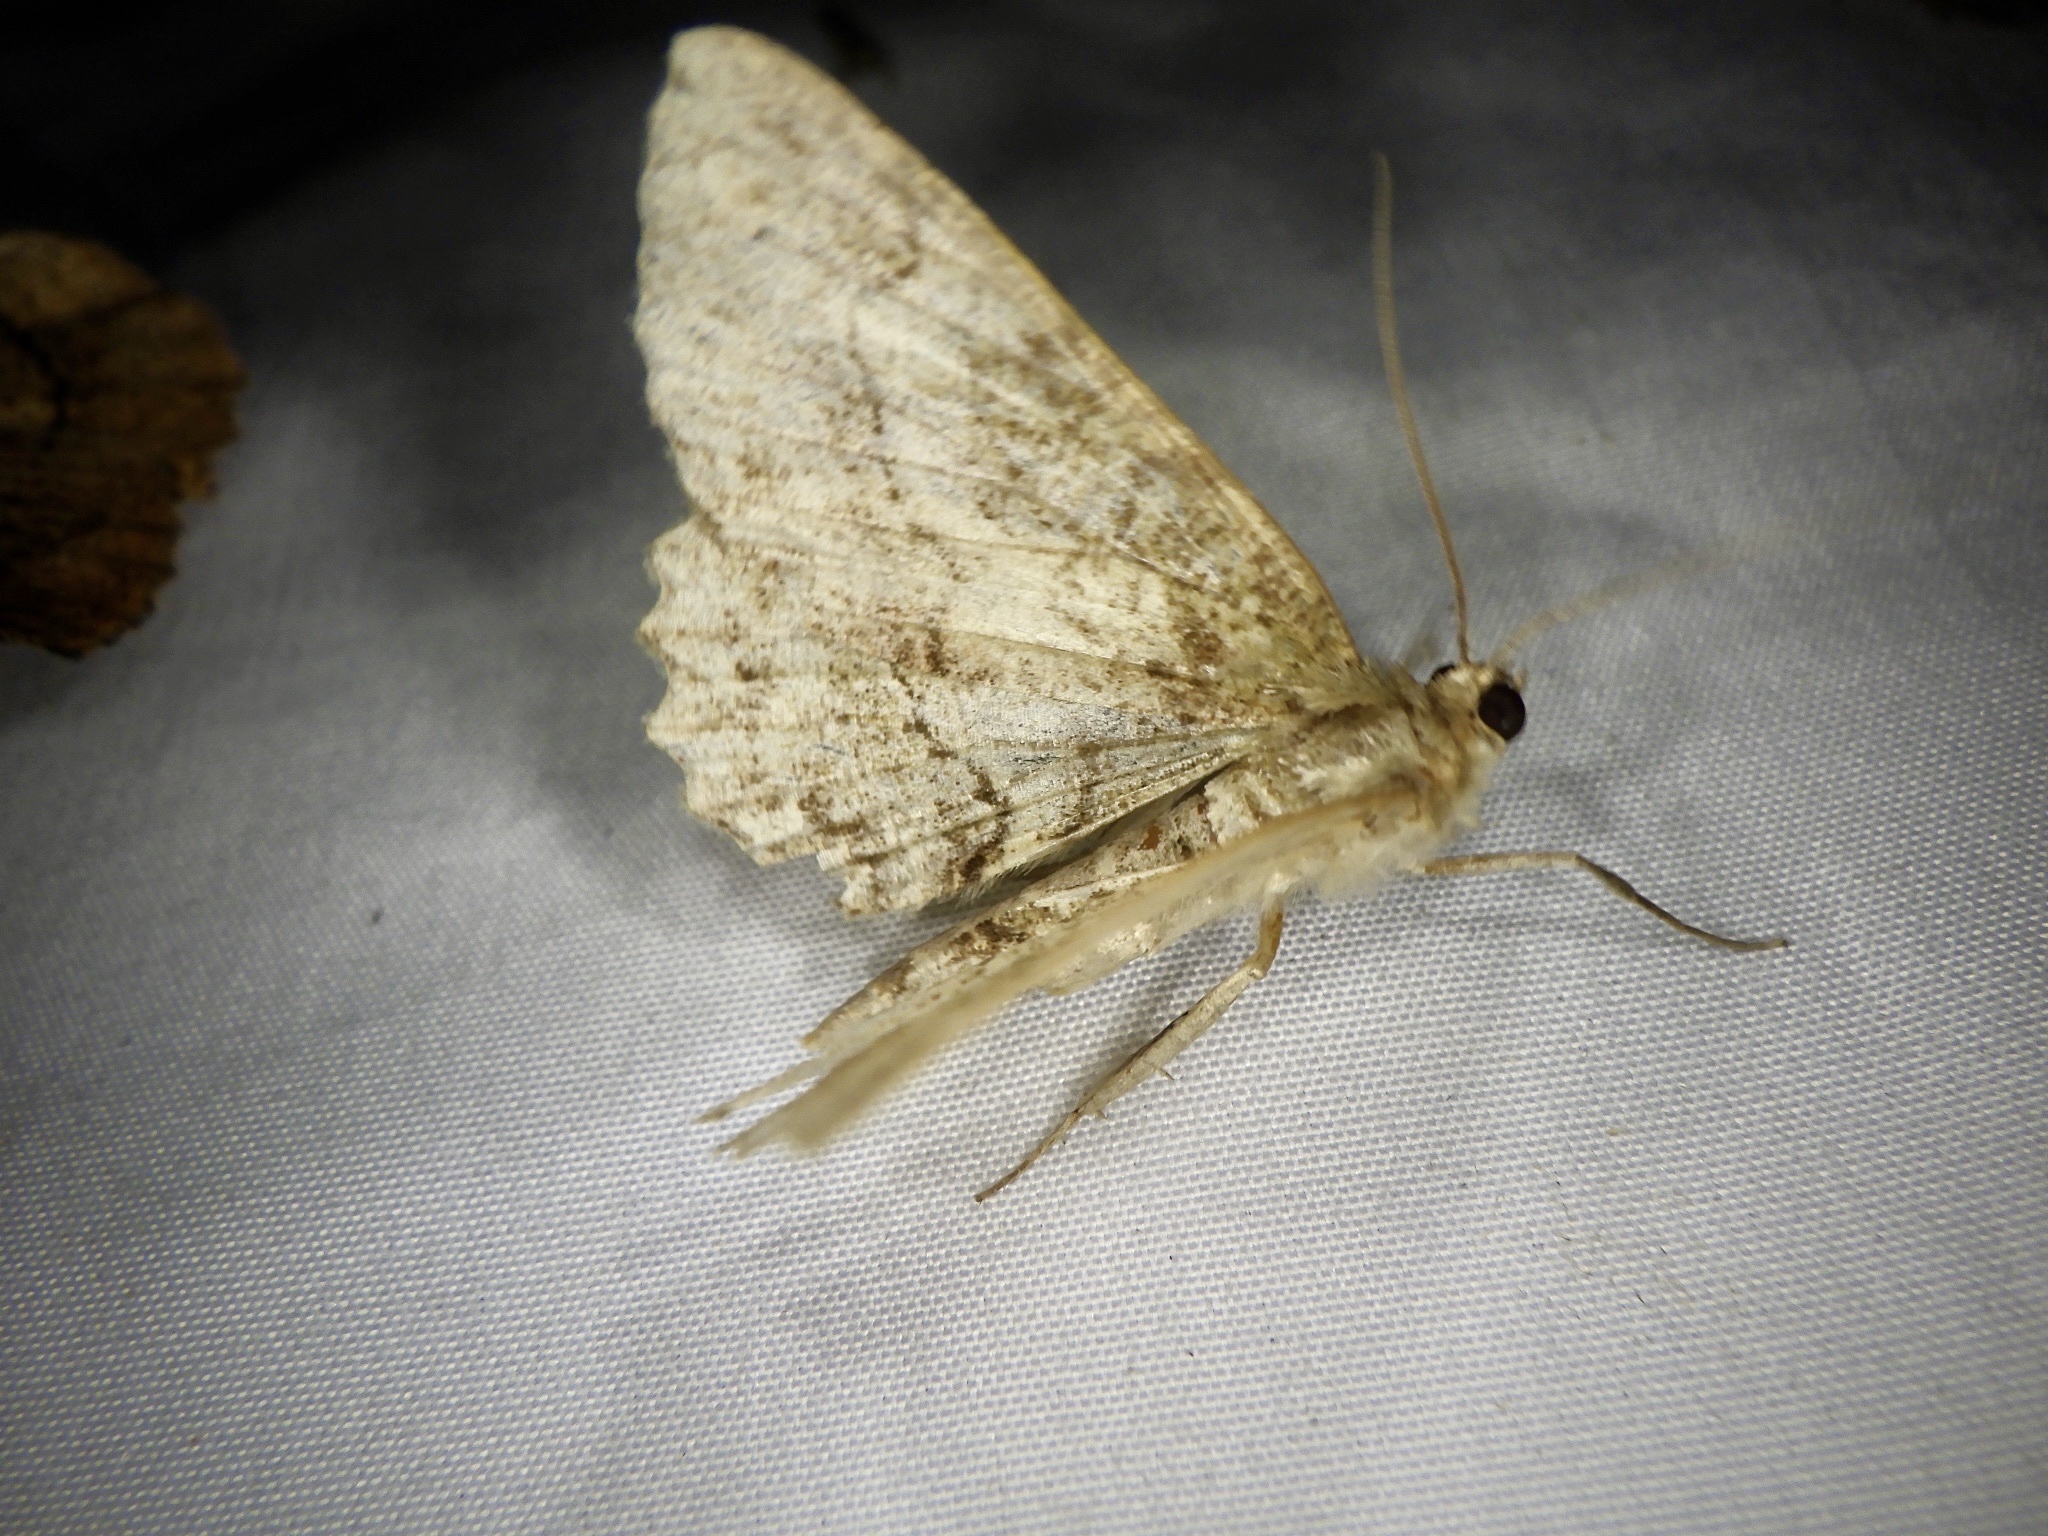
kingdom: Animalia
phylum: Arthropoda
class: Insecta
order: Lepidoptera
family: Geometridae
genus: Paradarisa
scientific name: Paradarisa chloauges
